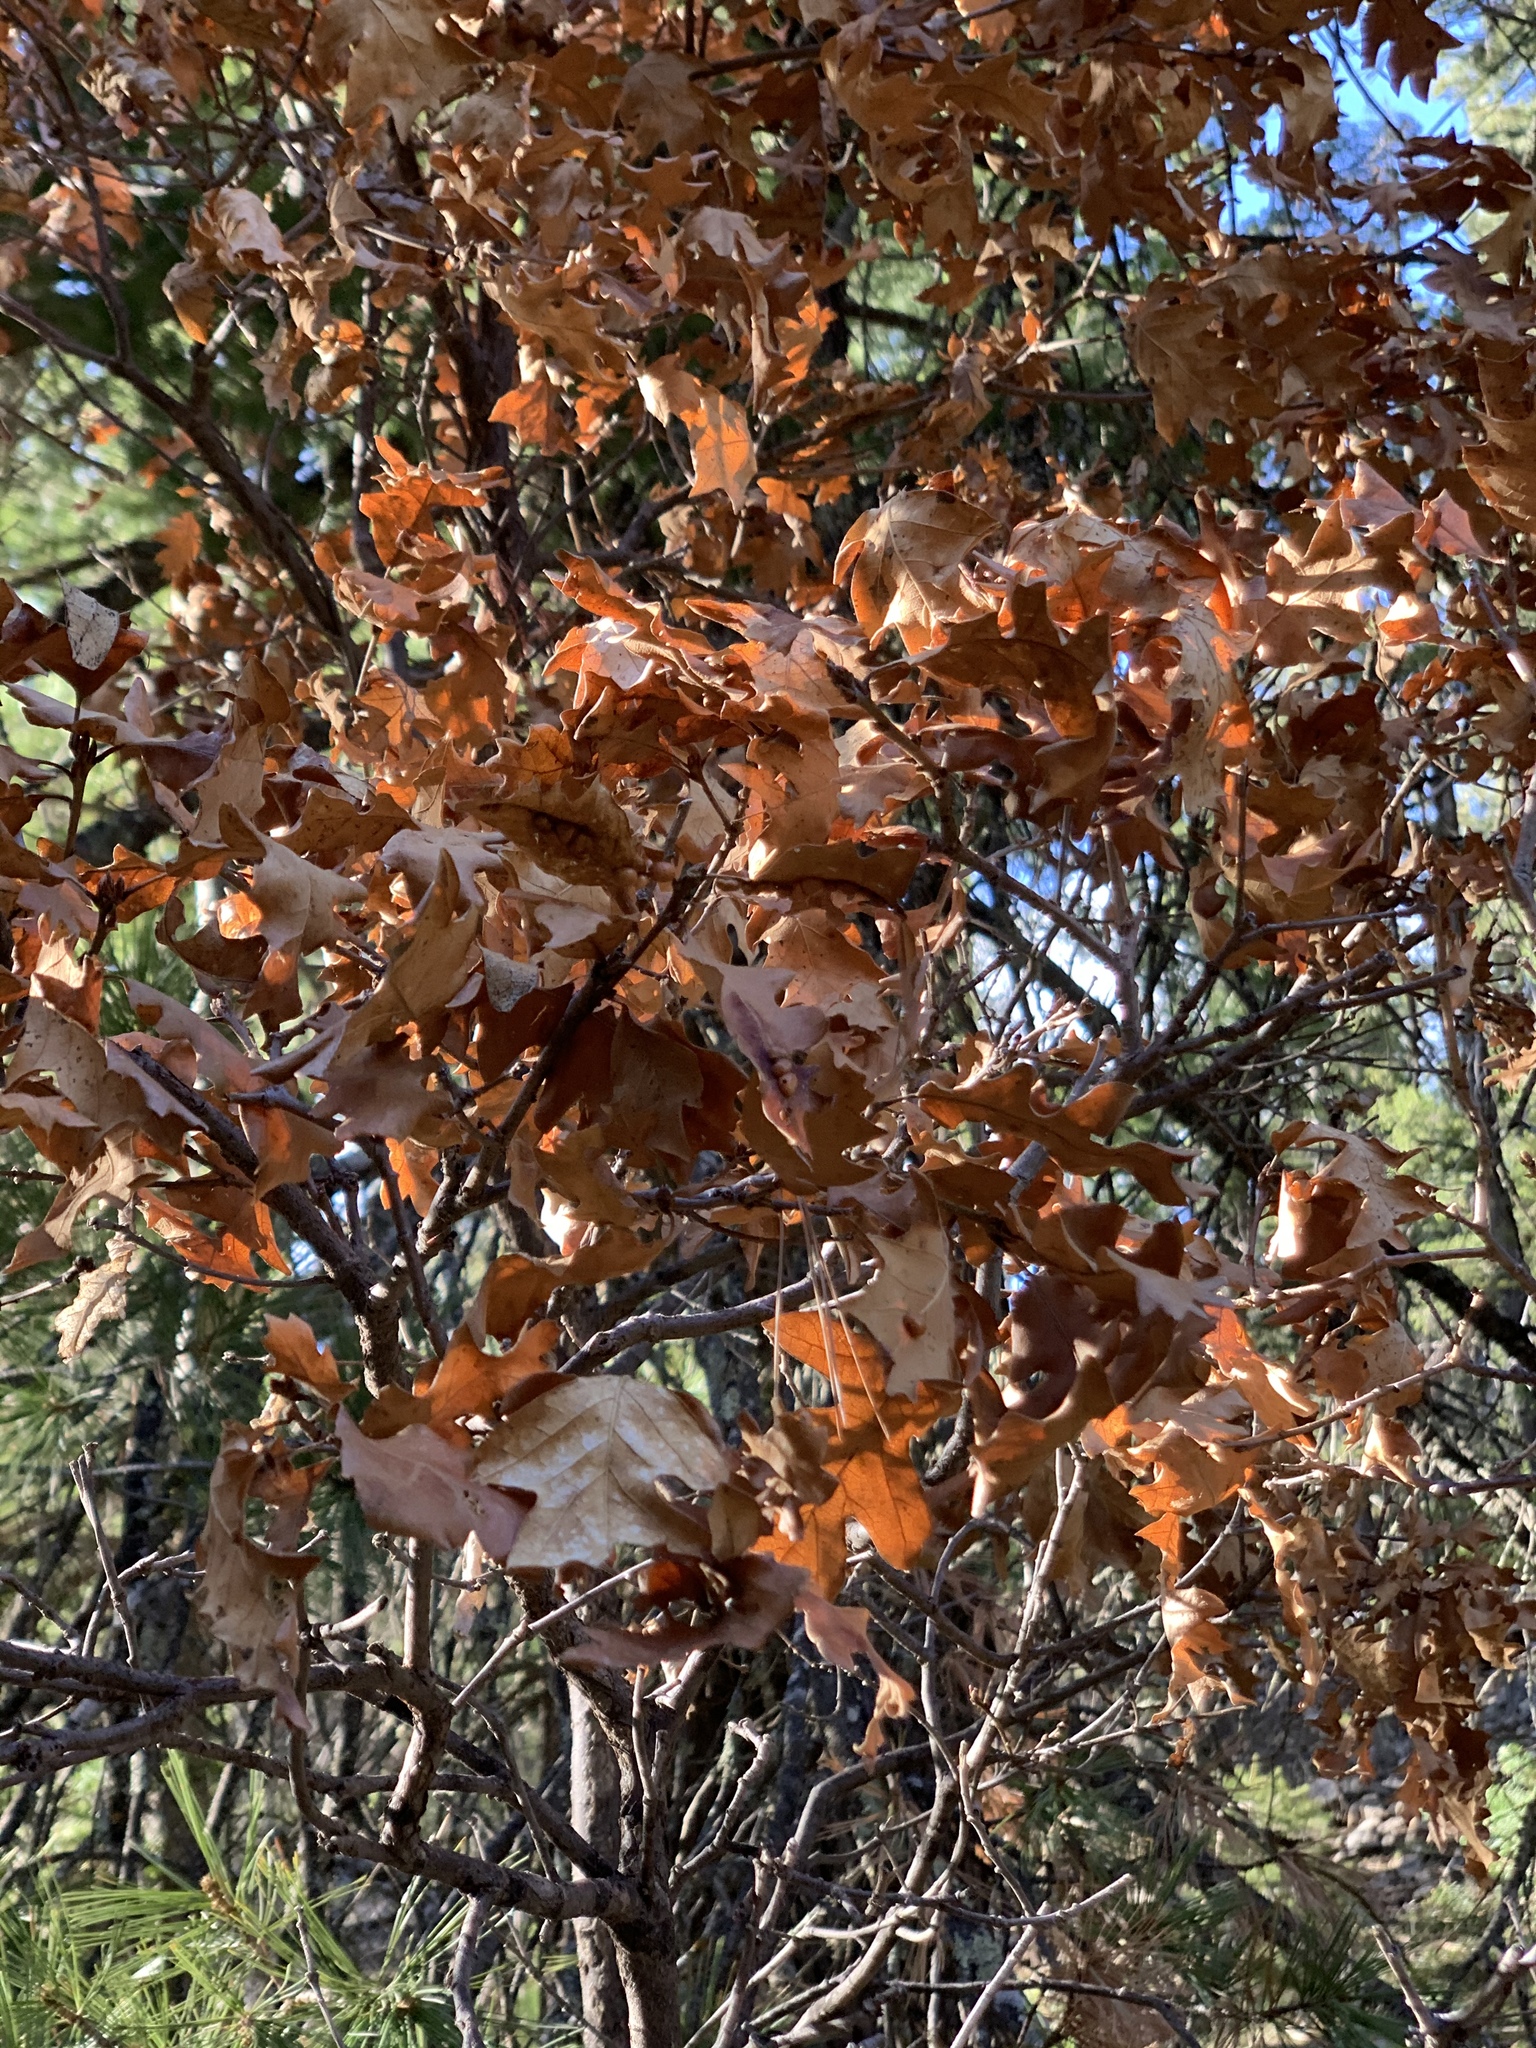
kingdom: Plantae
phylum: Tracheophyta
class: Magnoliopsida
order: Fagales
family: Fagaceae
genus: Quercus
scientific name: Quercus gambelii
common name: Gambel oak
